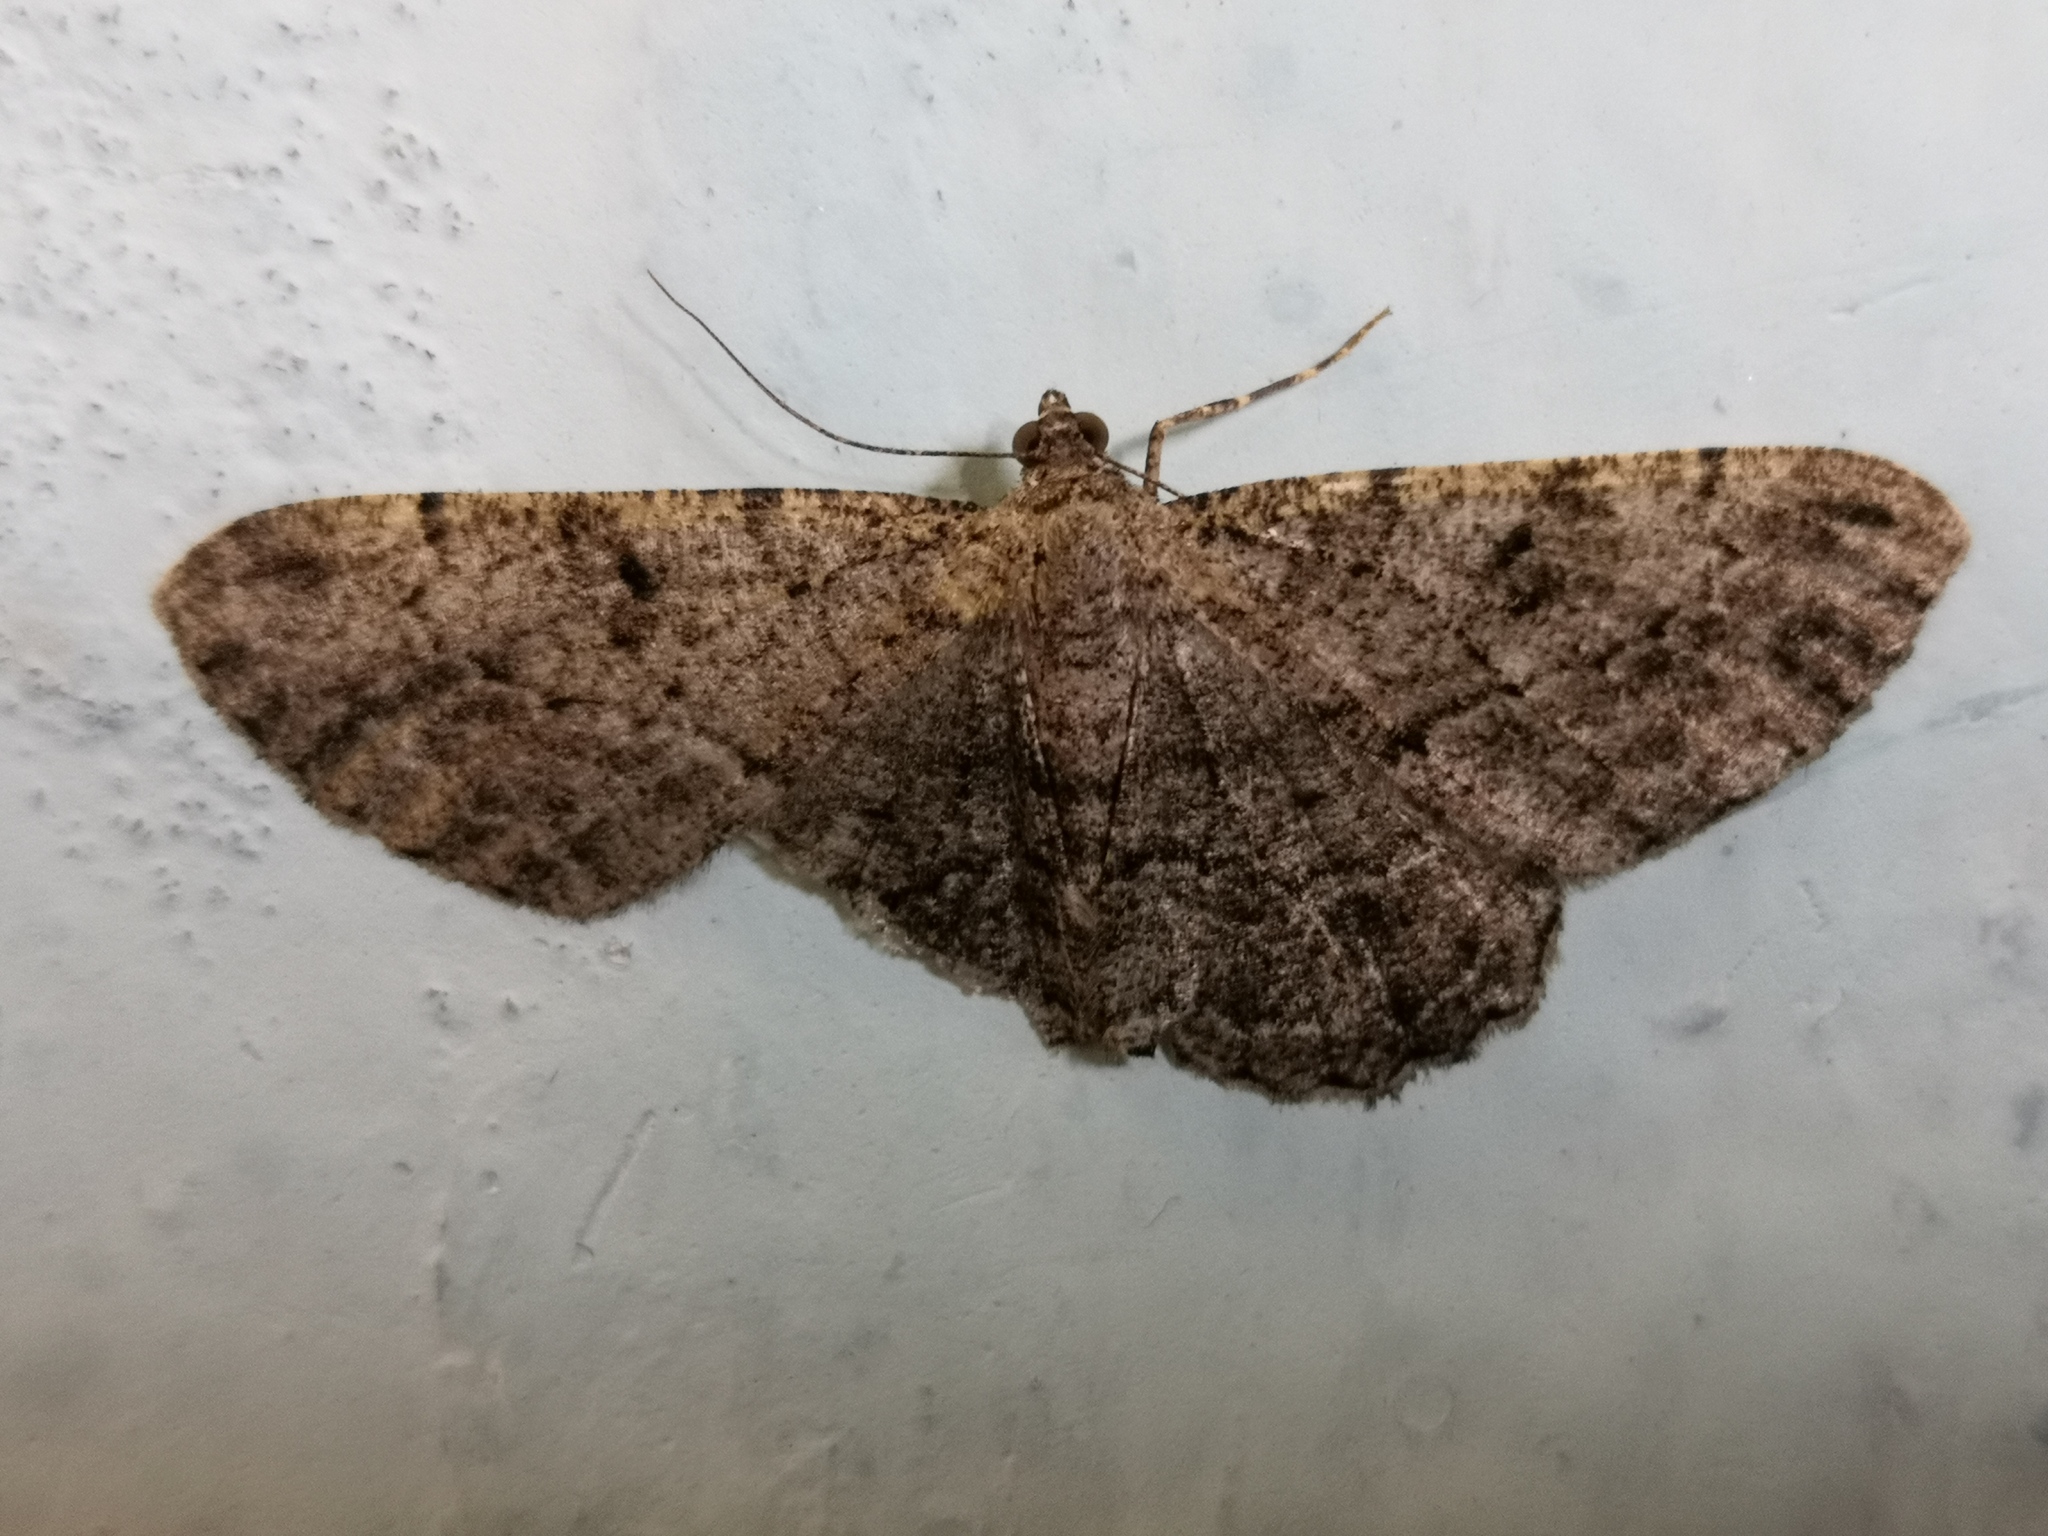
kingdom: Animalia
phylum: Arthropoda
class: Insecta
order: Lepidoptera
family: Geometridae
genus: Peribatodes
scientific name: Peribatodes rhomboidaria
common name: Willow beauty
